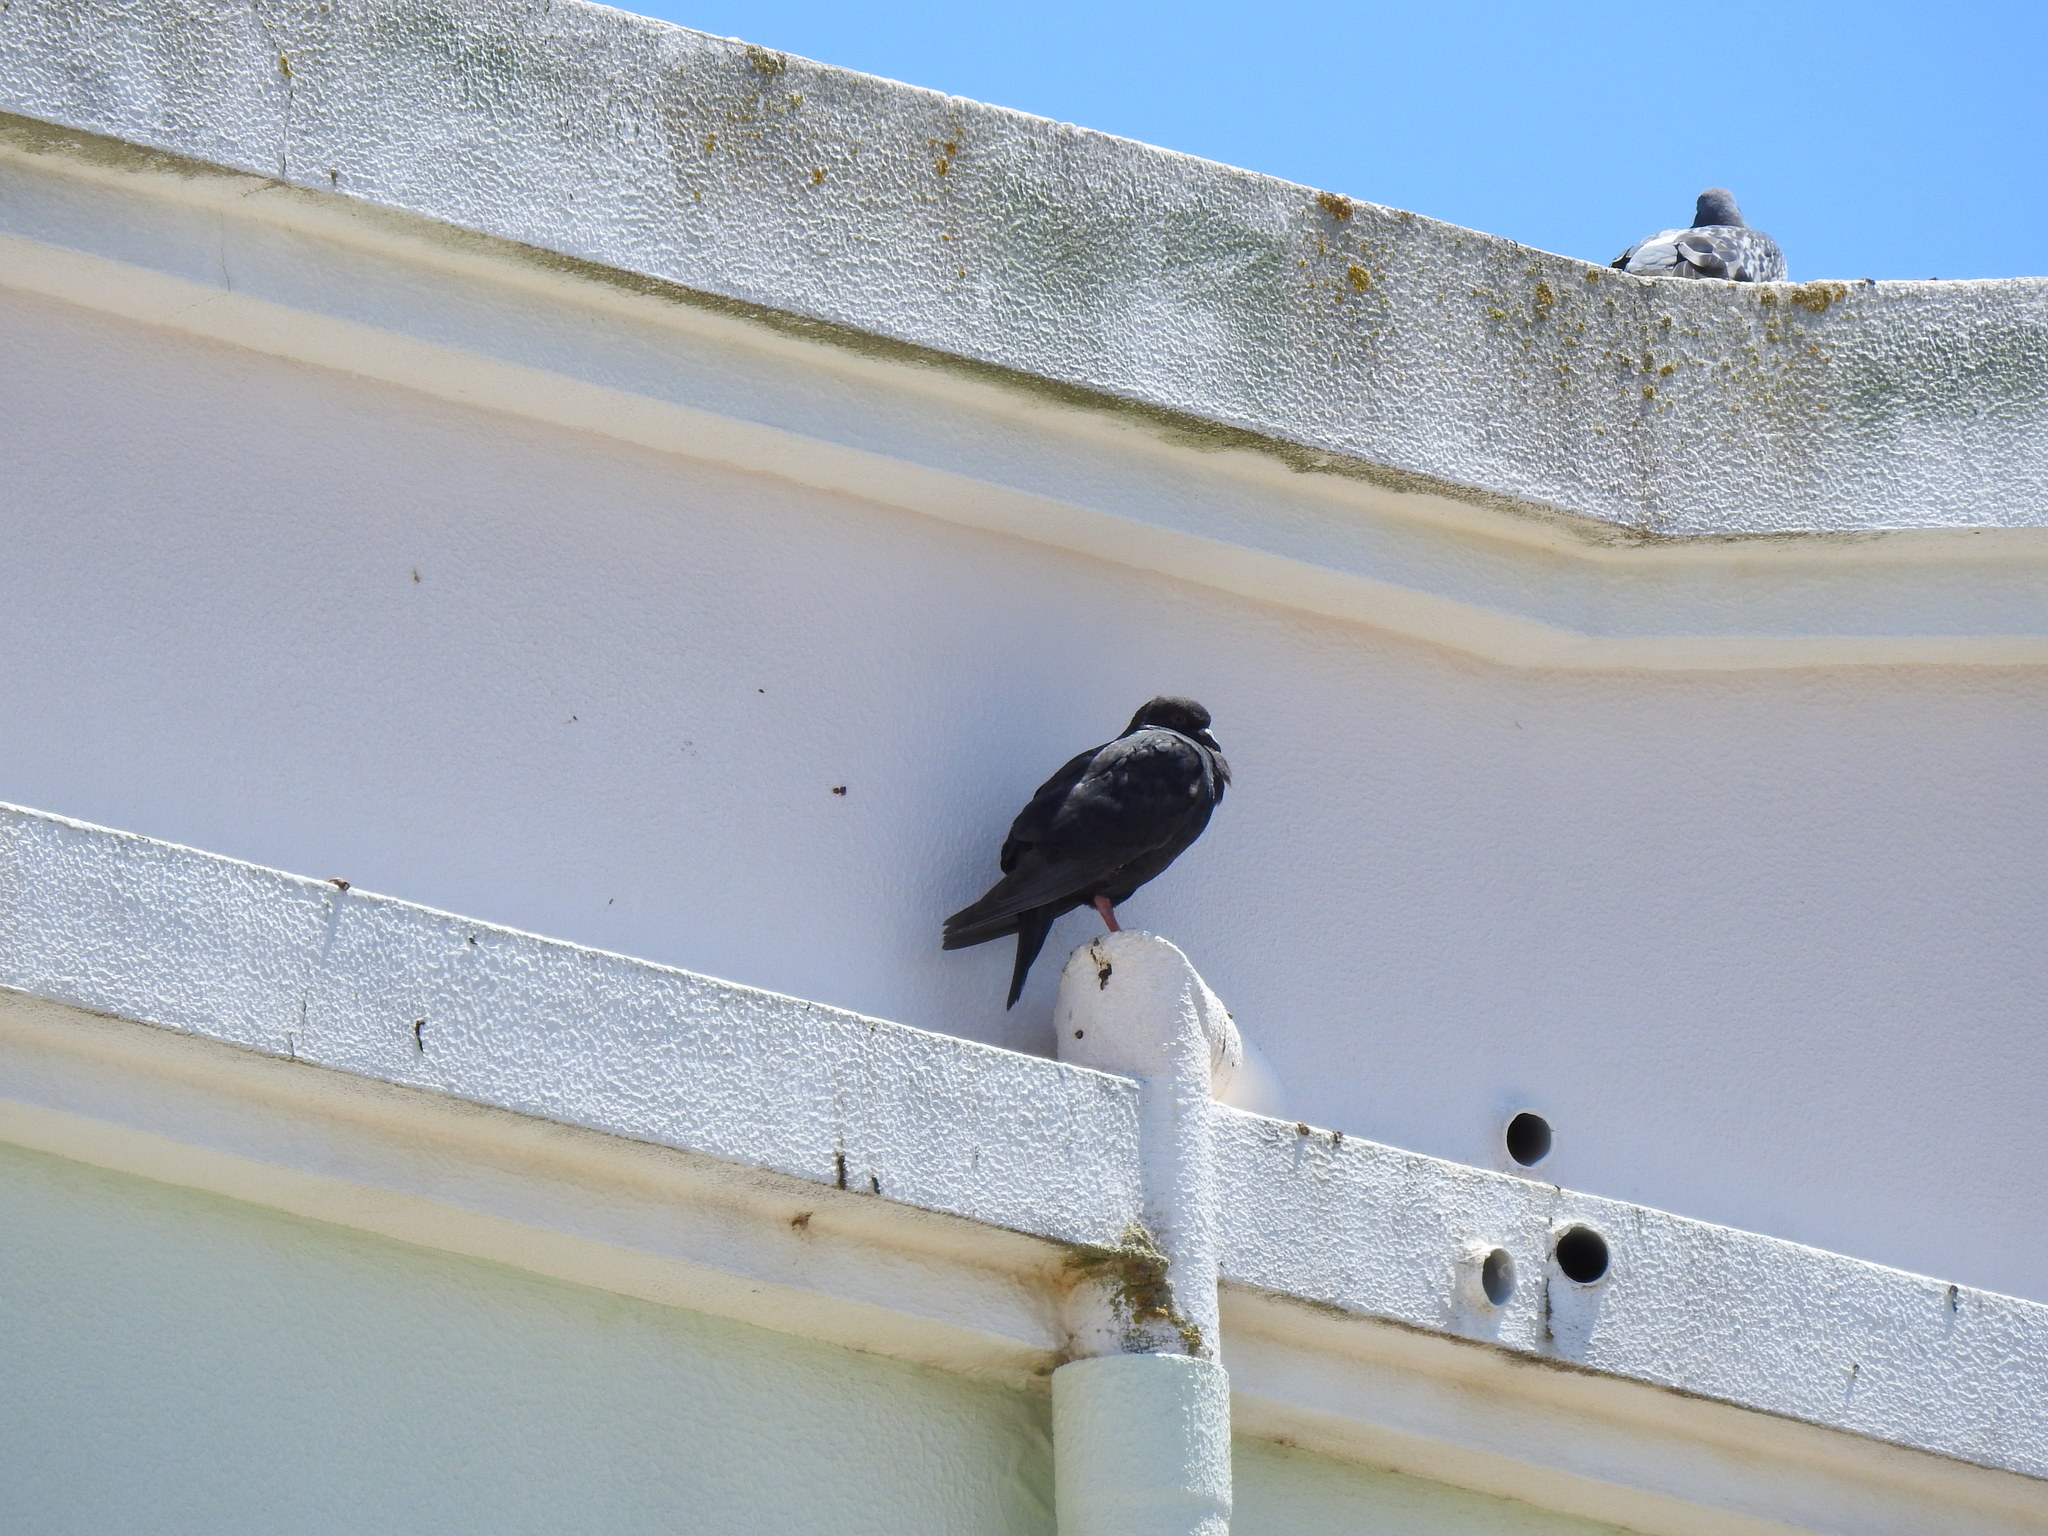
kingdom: Animalia
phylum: Chordata
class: Aves
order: Columbiformes
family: Columbidae
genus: Columba
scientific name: Columba livia
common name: Rock pigeon
